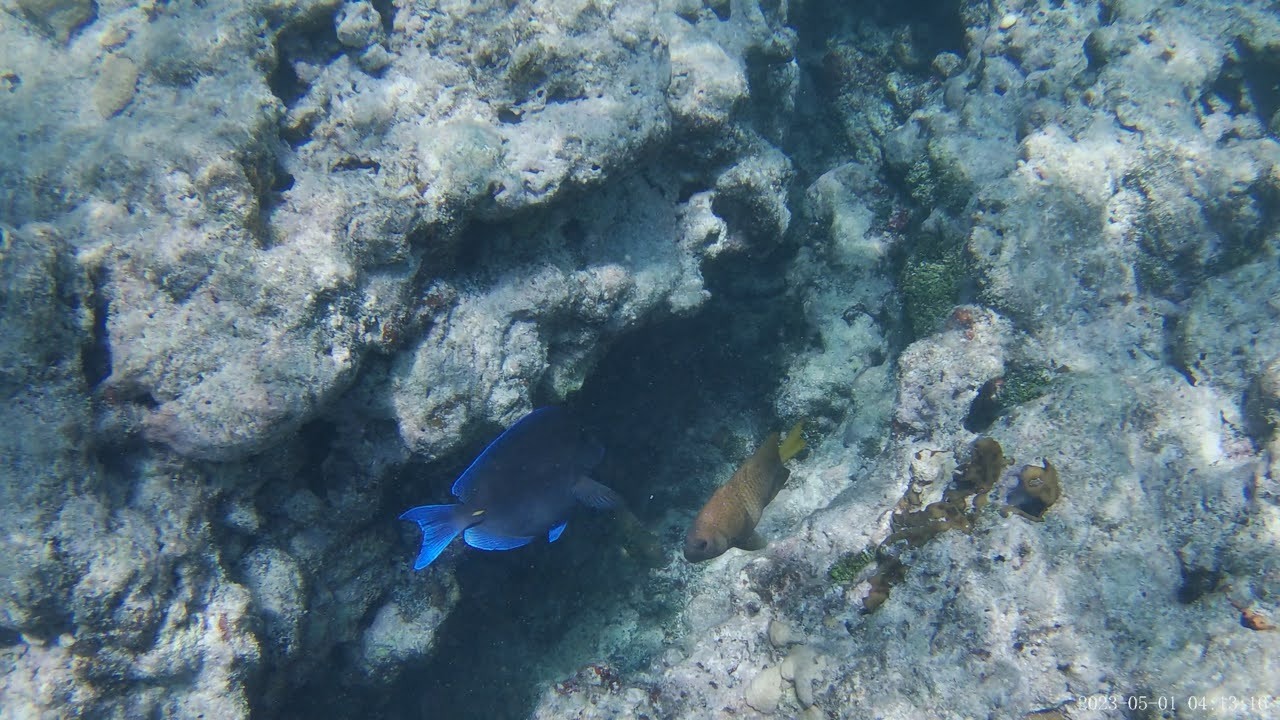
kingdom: Animalia
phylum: Chordata
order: Perciformes
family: Acanthuridae
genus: Acanthurus
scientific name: Acanthurus coeruleus
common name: Blue tang
